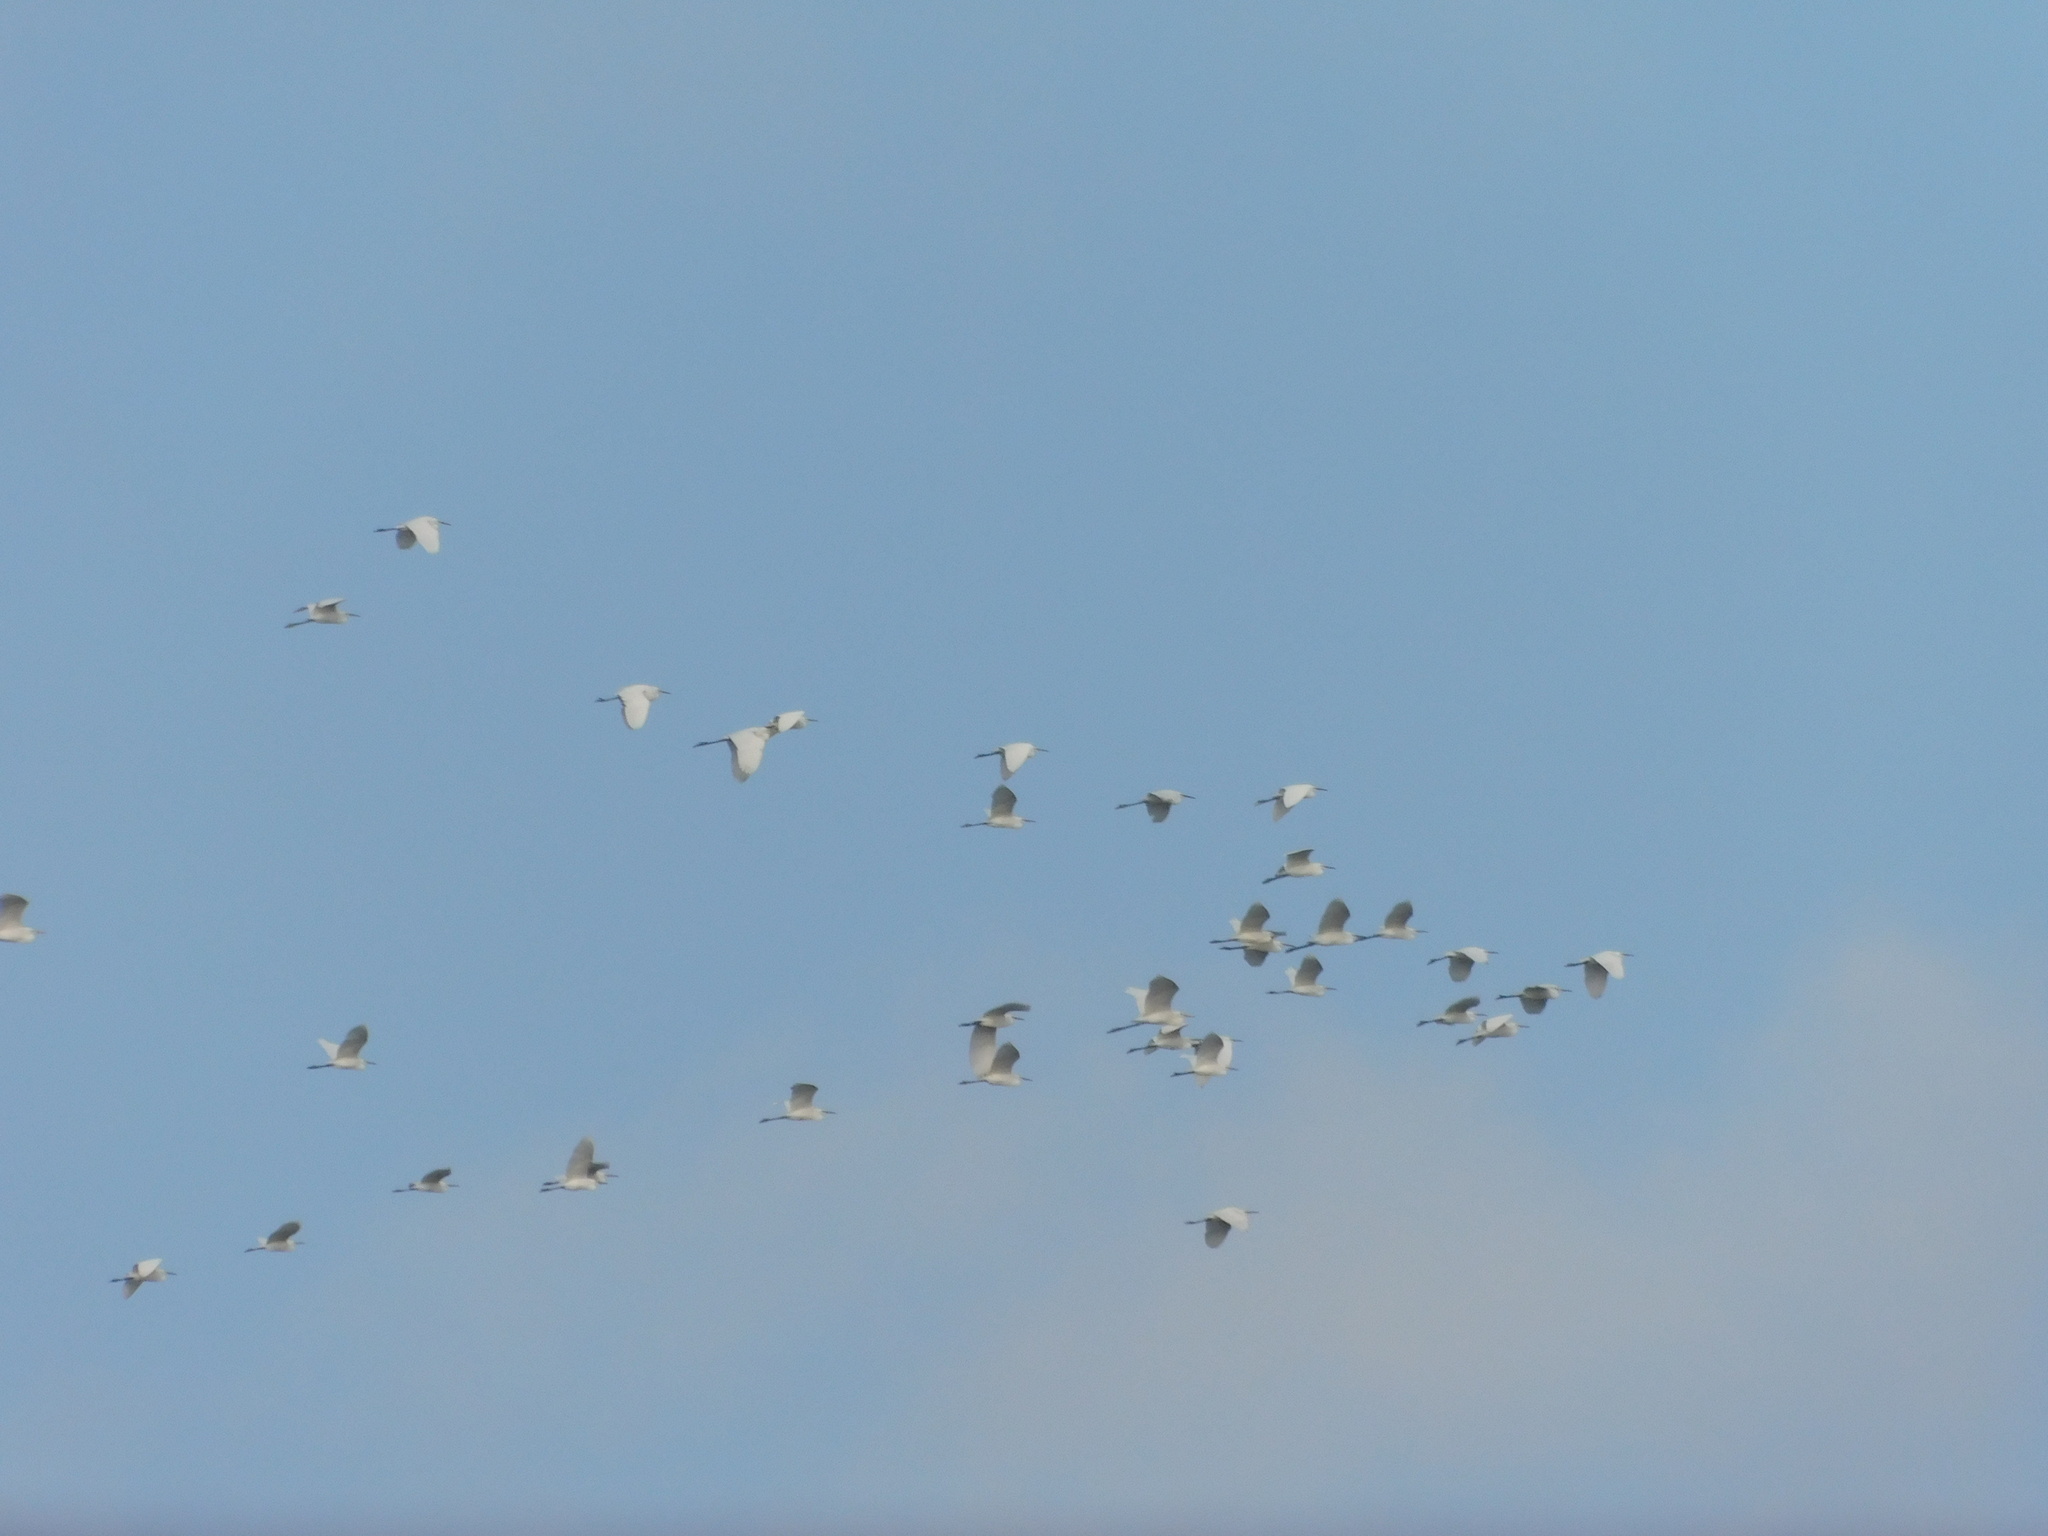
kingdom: Animalia
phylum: Chordata
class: Aves
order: Pelecaniformes
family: Ardeidae
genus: Egretta
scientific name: Egretta garzetta
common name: Little egret
